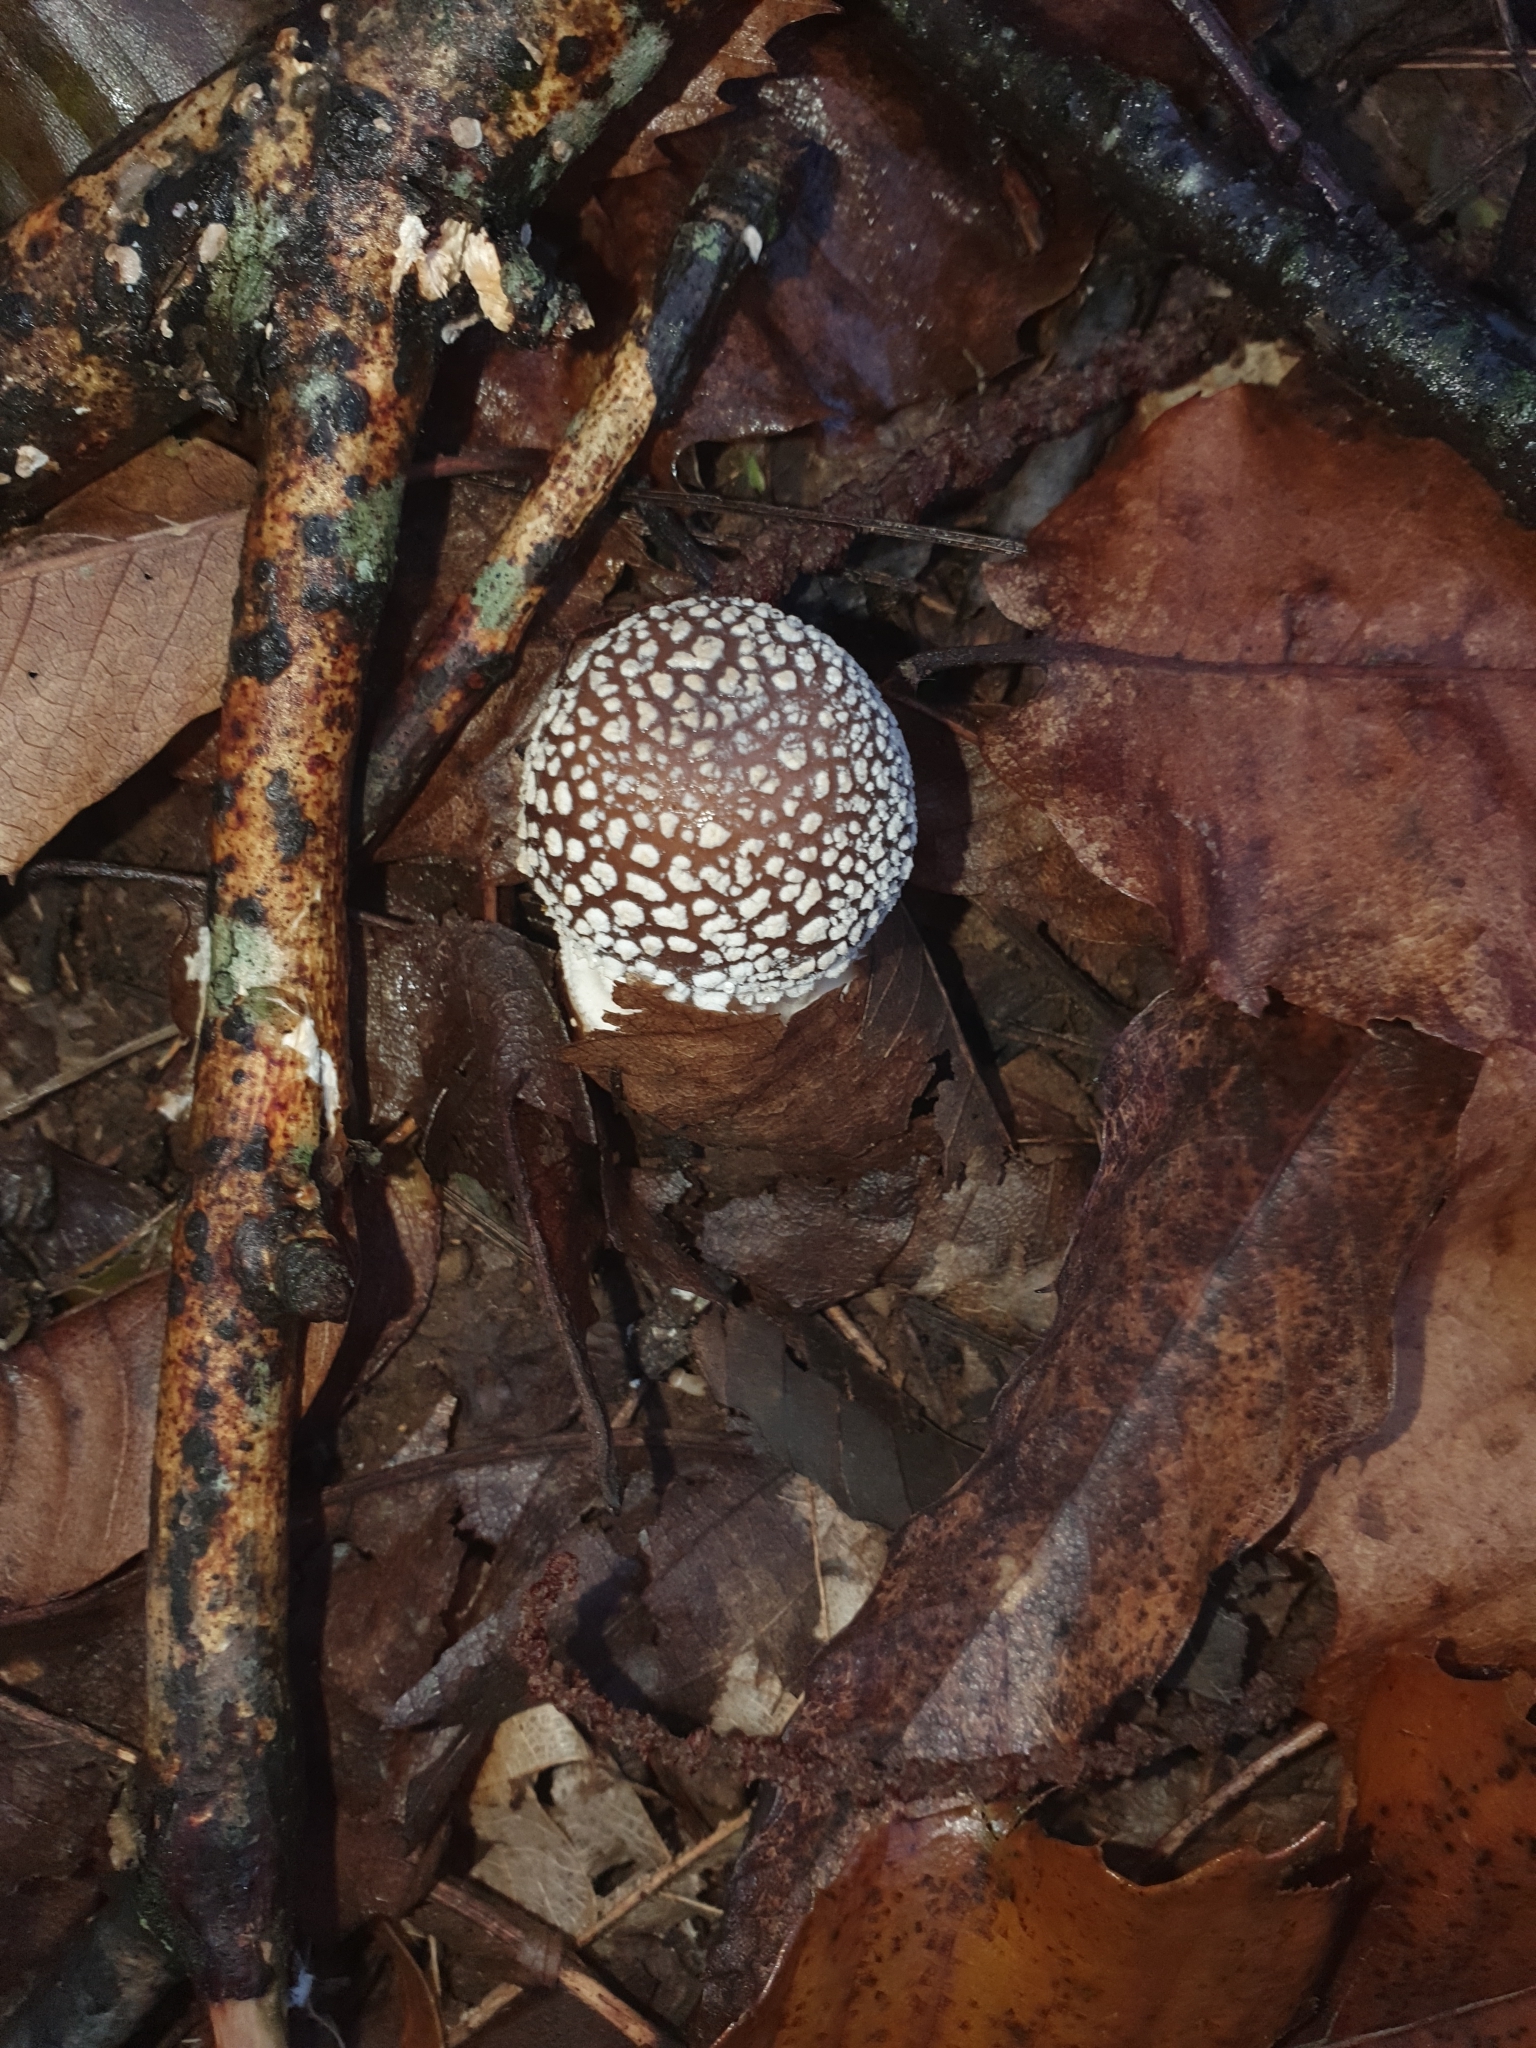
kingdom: Fungi
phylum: Basidiomycota
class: Agaricomycetes
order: Agaricales
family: Amanitaceae
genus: Amanita
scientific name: Amanita pantherina
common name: Panthercap
